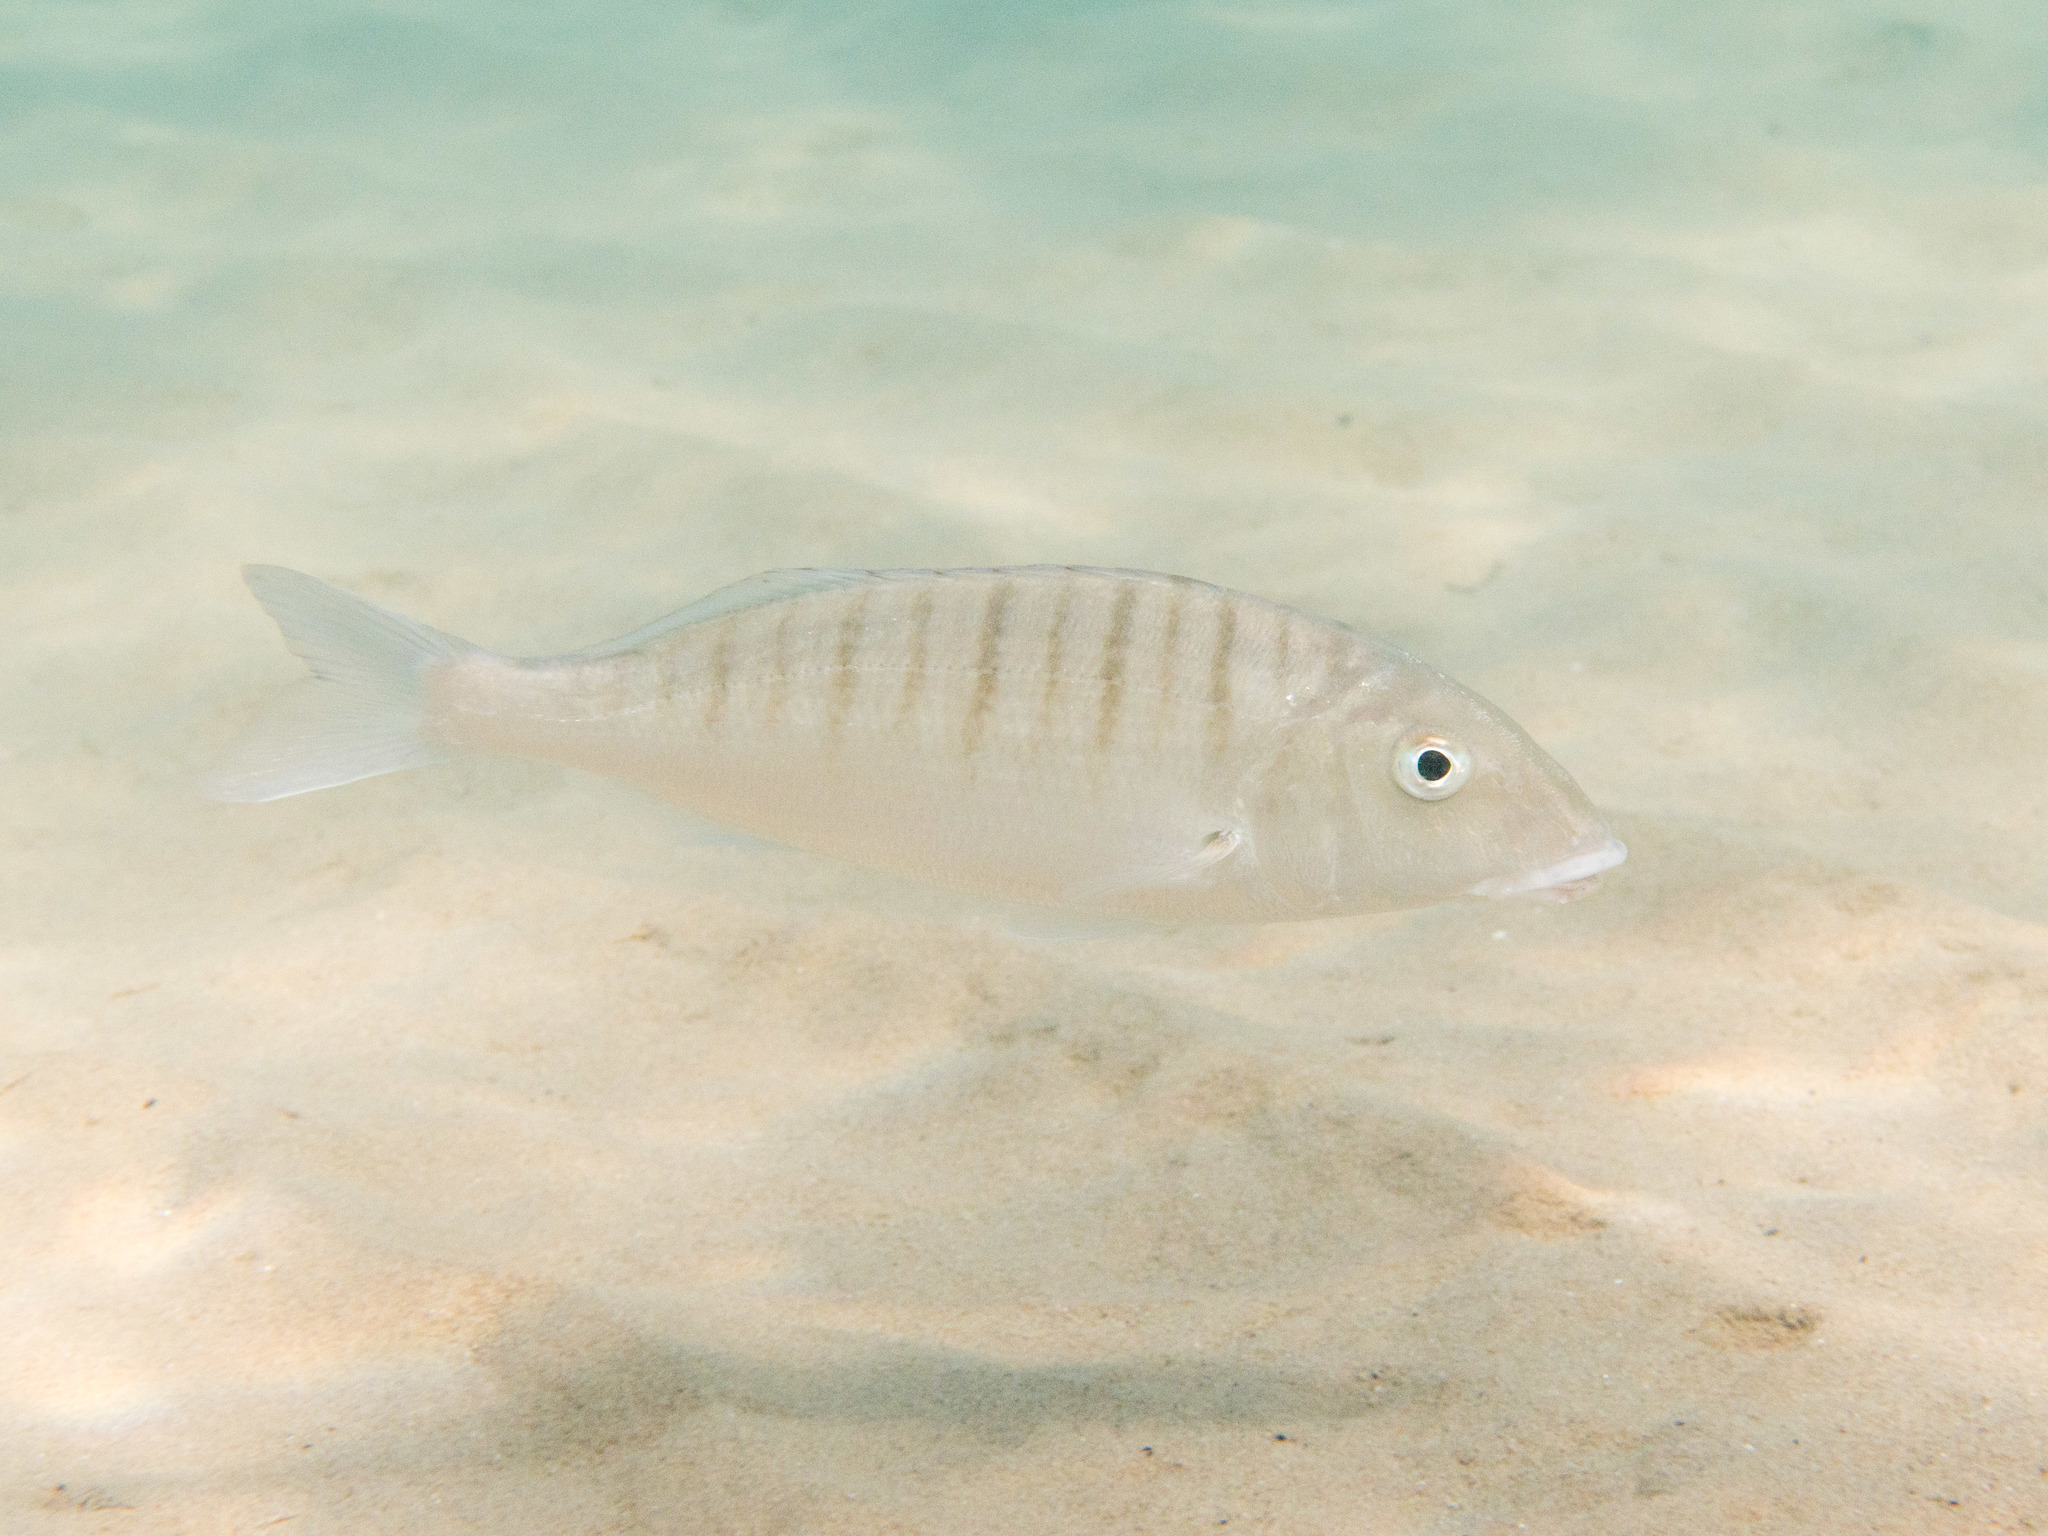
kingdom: Animalia
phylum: Chordata
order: Perciformes
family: Sparidae
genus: Lithognathus
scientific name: Lithognathus mormyrus
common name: Sand steenbras
